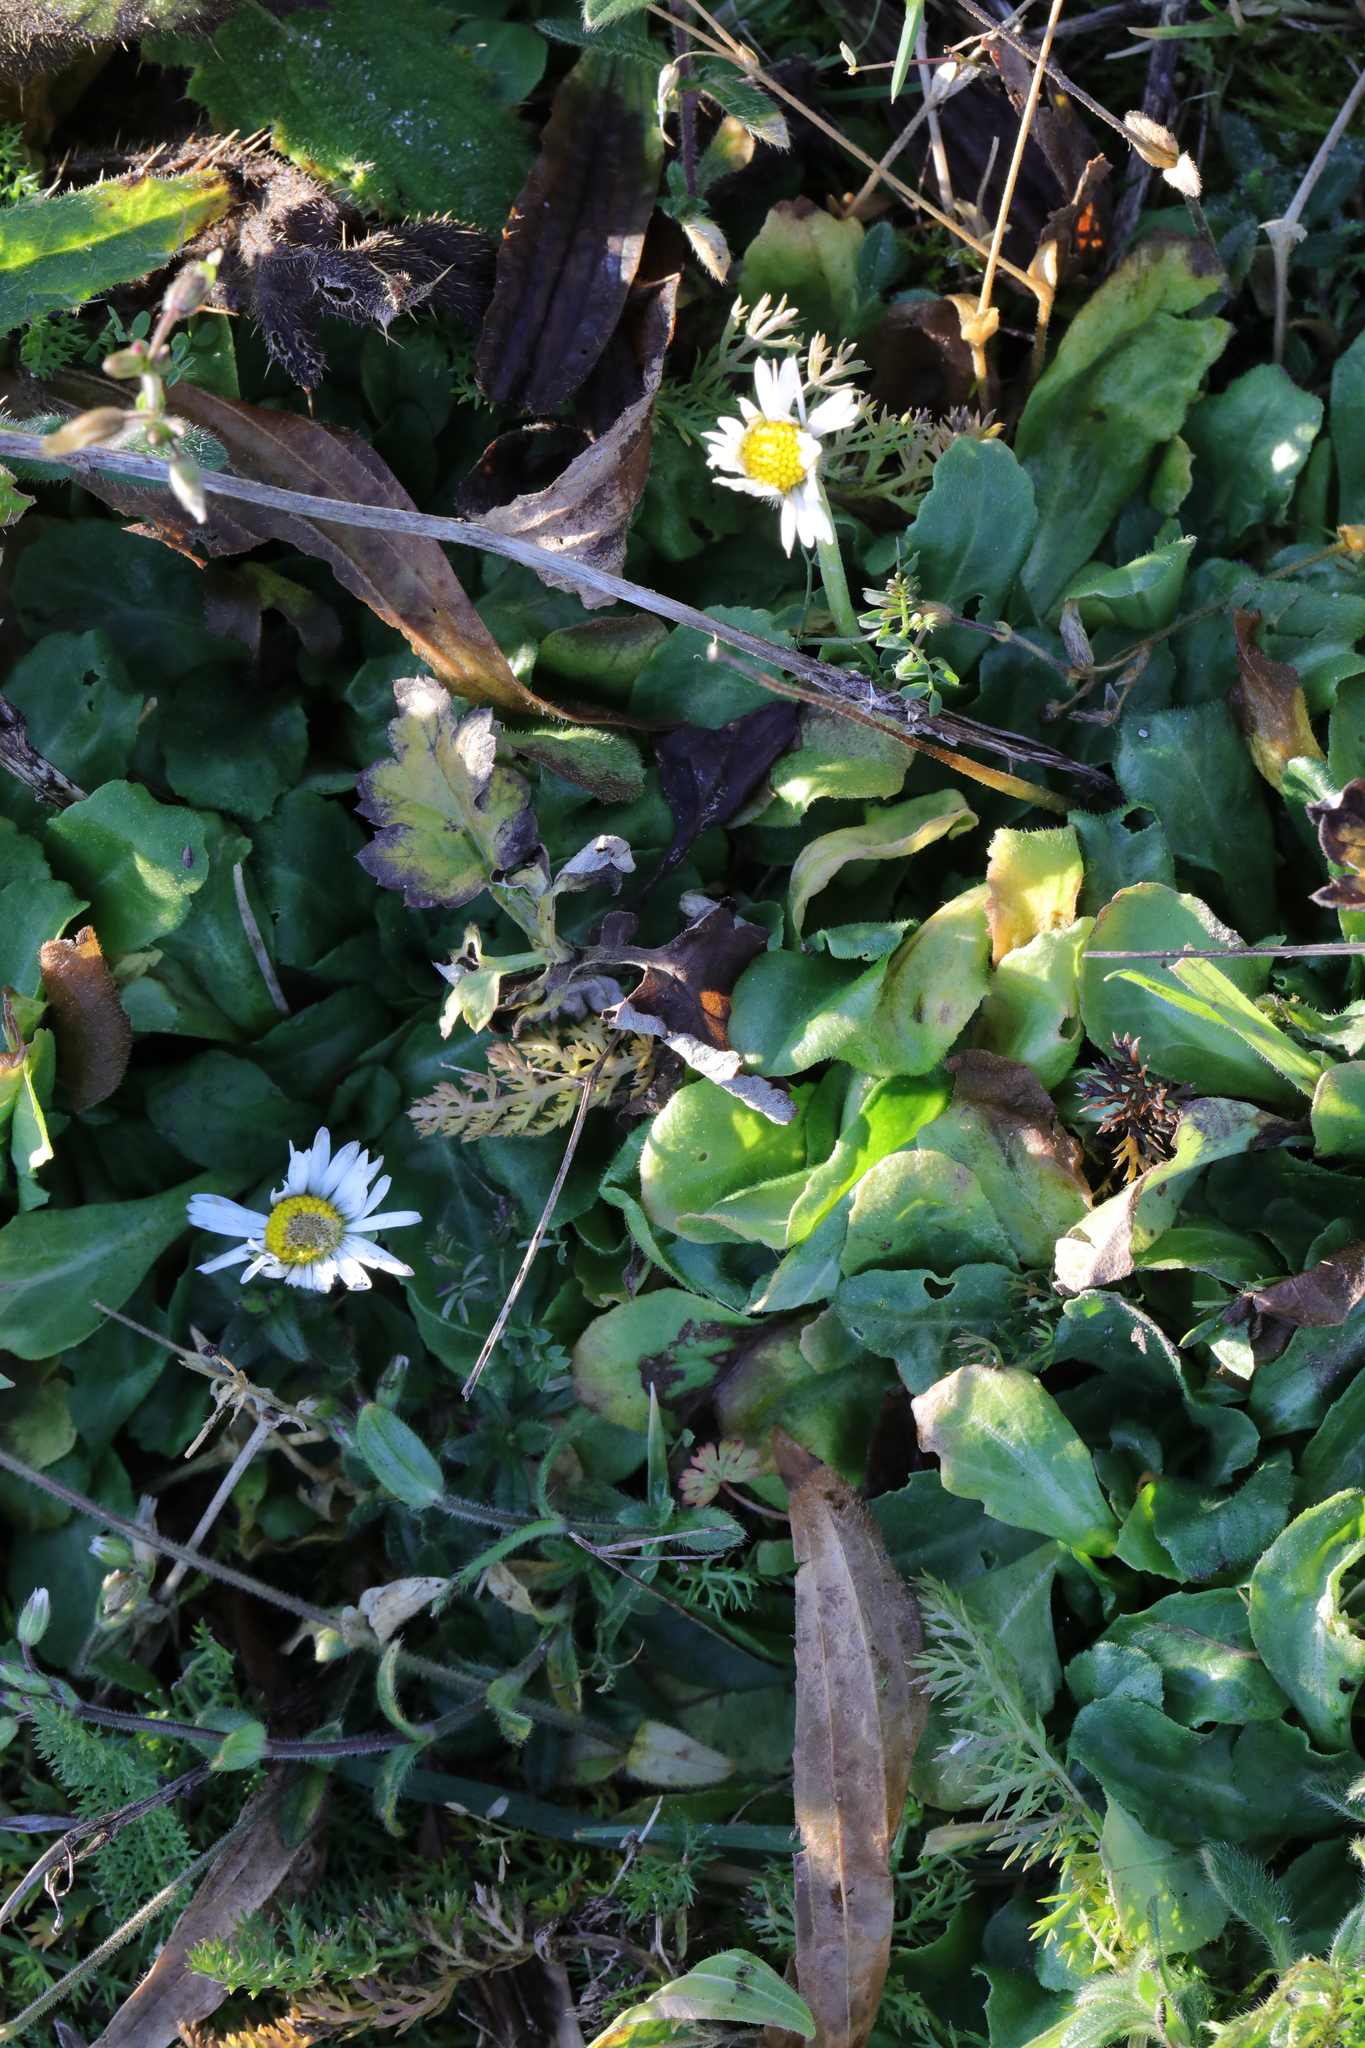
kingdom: Plantae
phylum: Tracheophyta
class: Magnoliopsida
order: Asterales
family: Asteraceae
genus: Bellis
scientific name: Bellis perennis
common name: Lawndaisy
